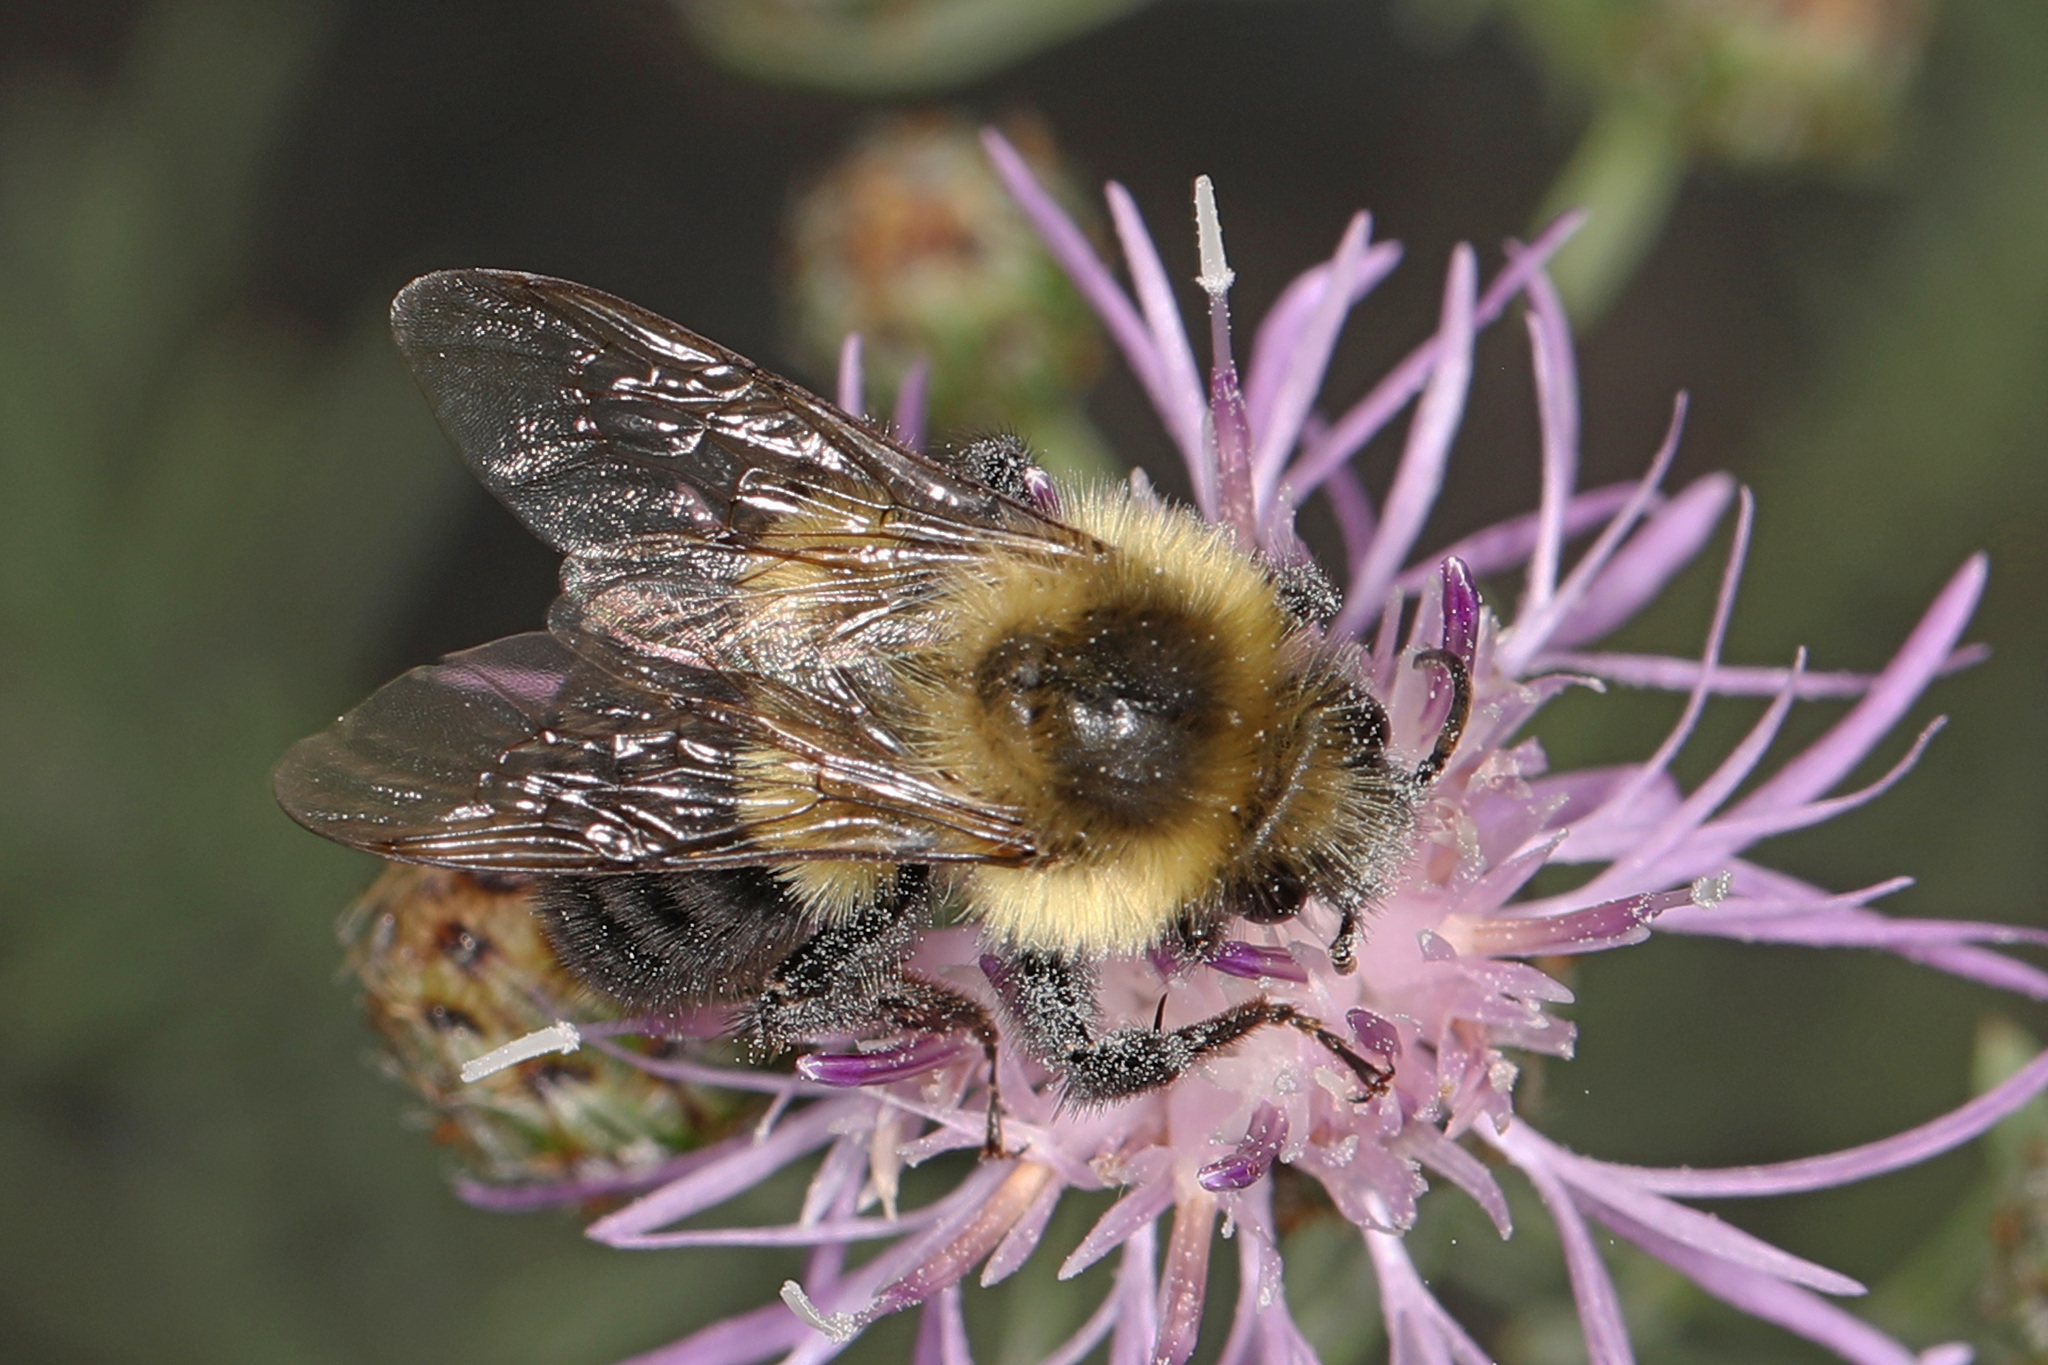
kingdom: Animalia
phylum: Arthropoda
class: Insecta
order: Hymenoptera
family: Apidae
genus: Bombus
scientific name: Bombus impatiens
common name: Common eastern bumble bee
